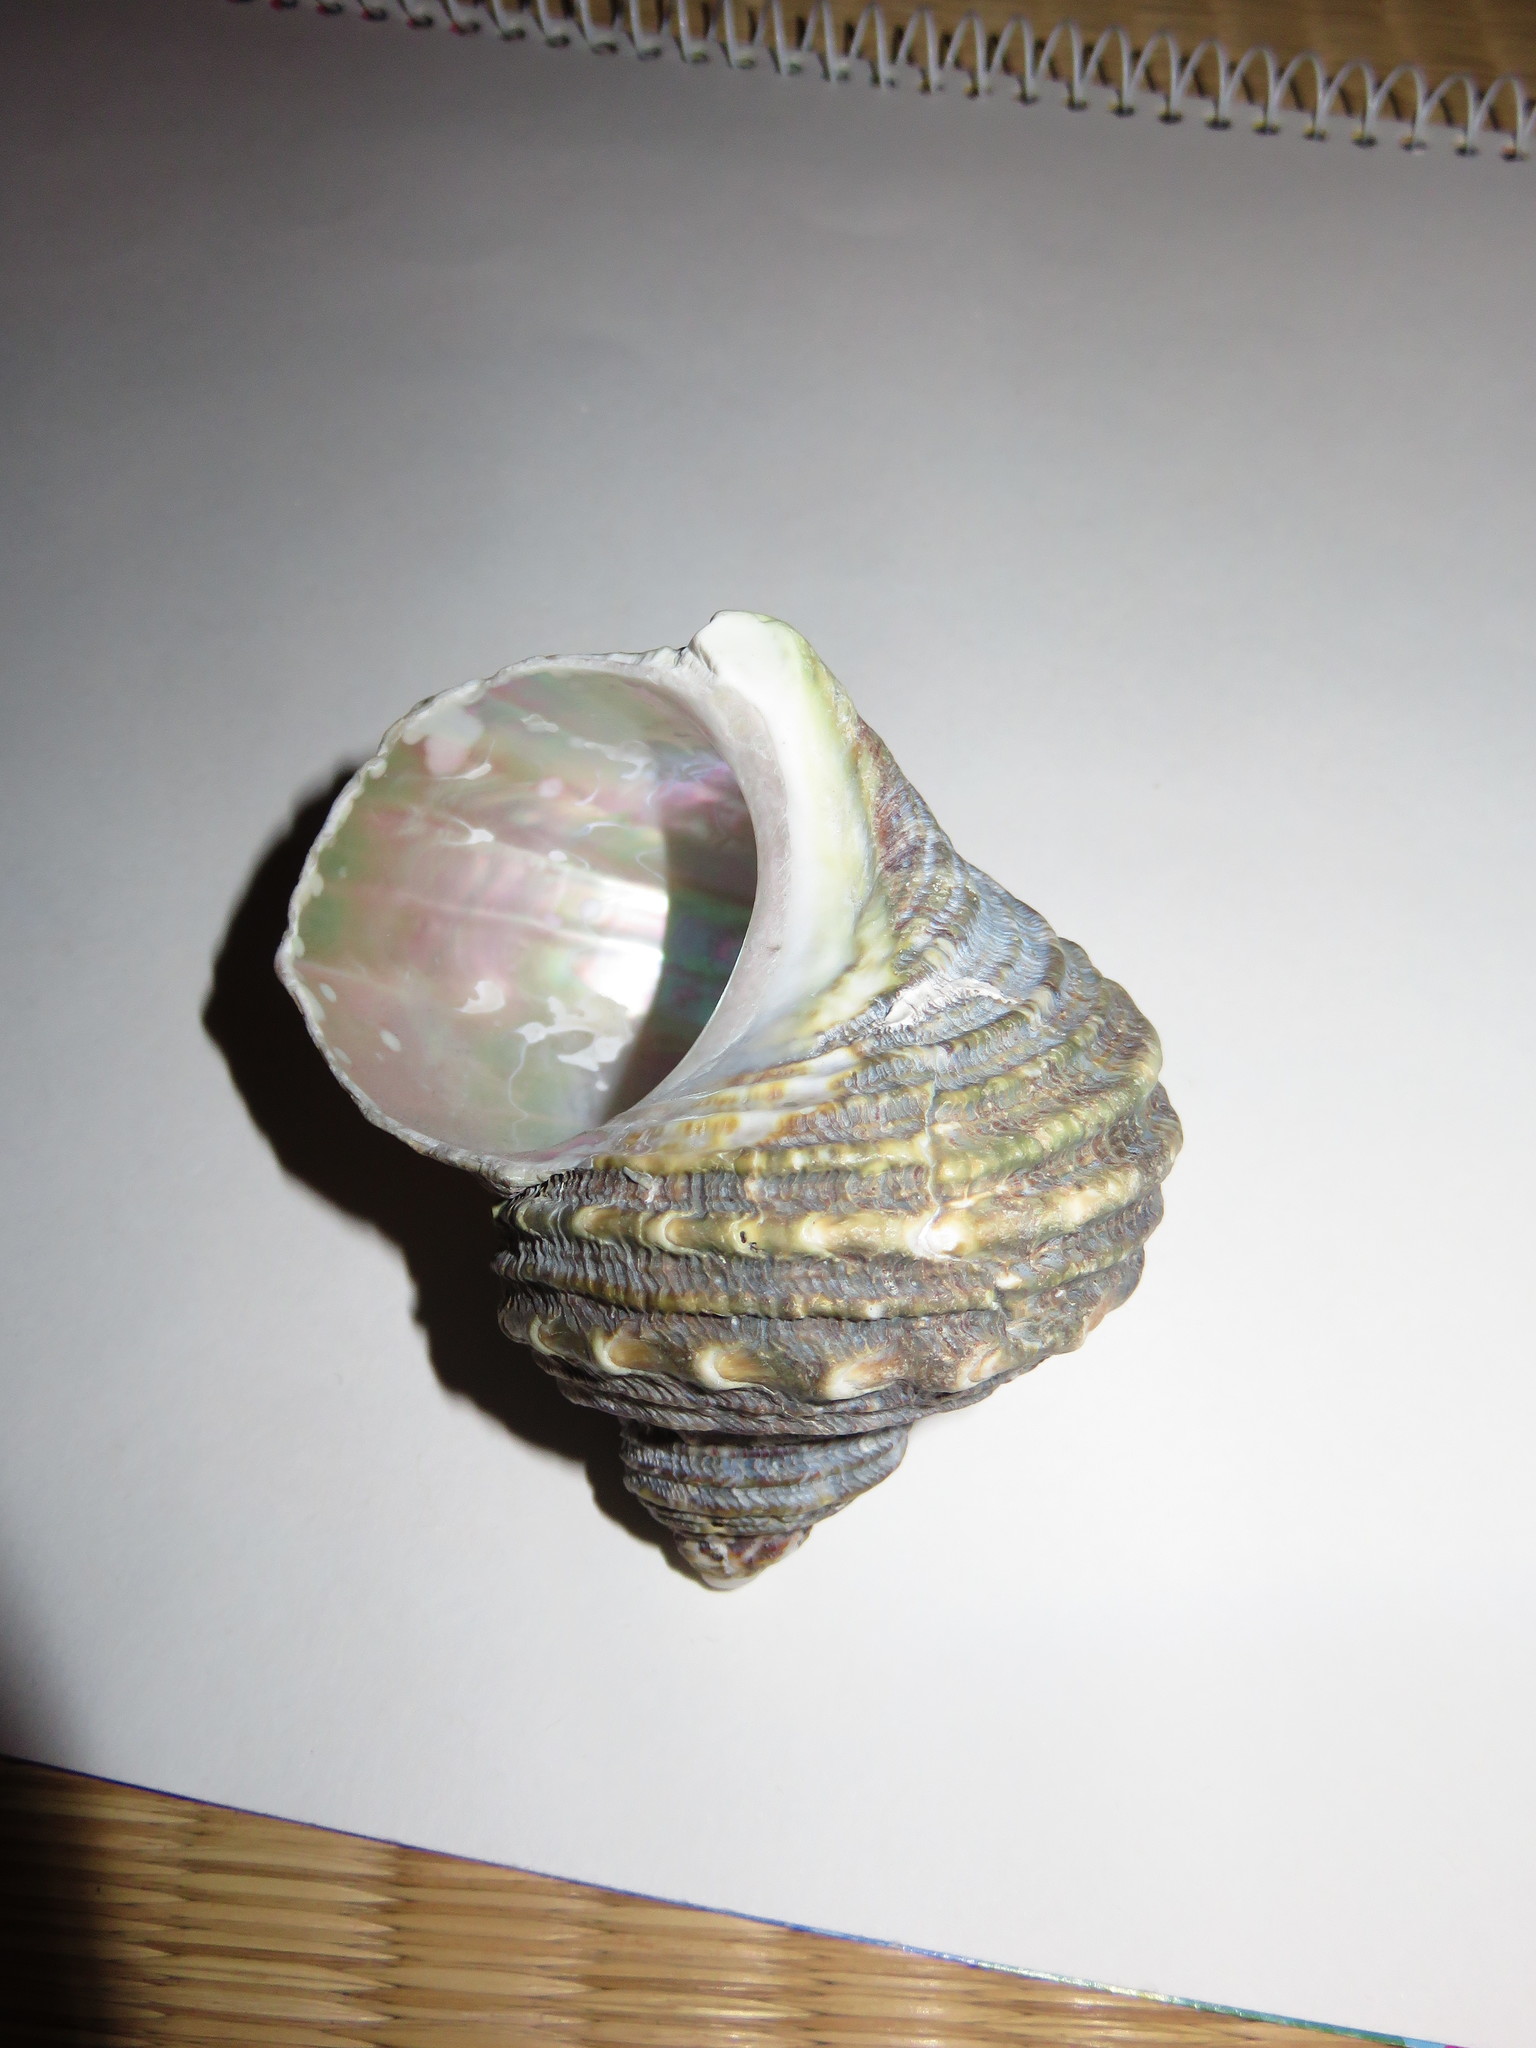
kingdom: Animalia
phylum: Mollusca
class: Gastropoda
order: Trochida
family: Turbinidae
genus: Turbo
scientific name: Turbo sazae
